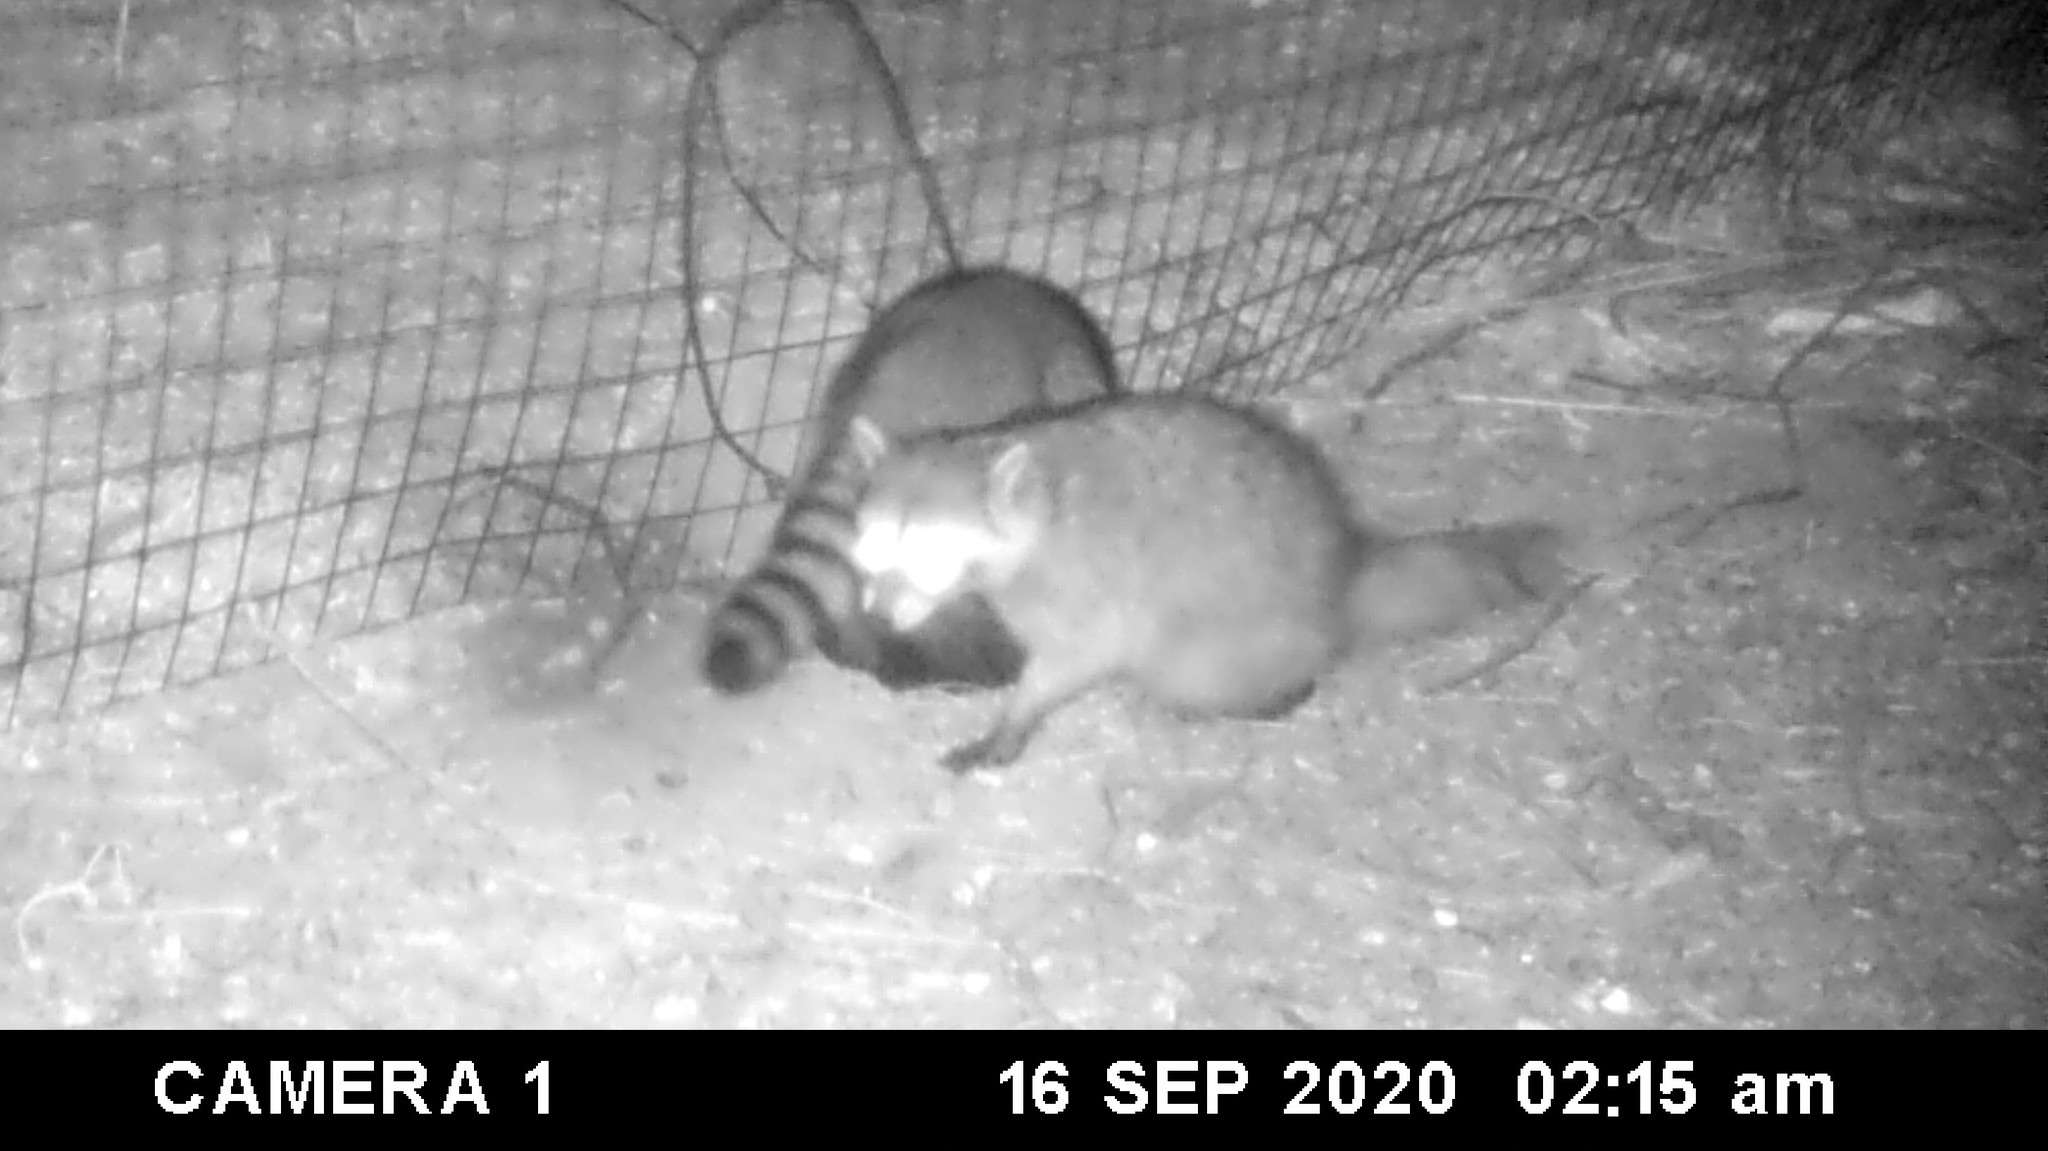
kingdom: Animalia
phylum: Chordata
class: Mammalia
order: Carnivora
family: Procyonidae
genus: Procyon
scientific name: Procyon lotor
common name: Raccoon
